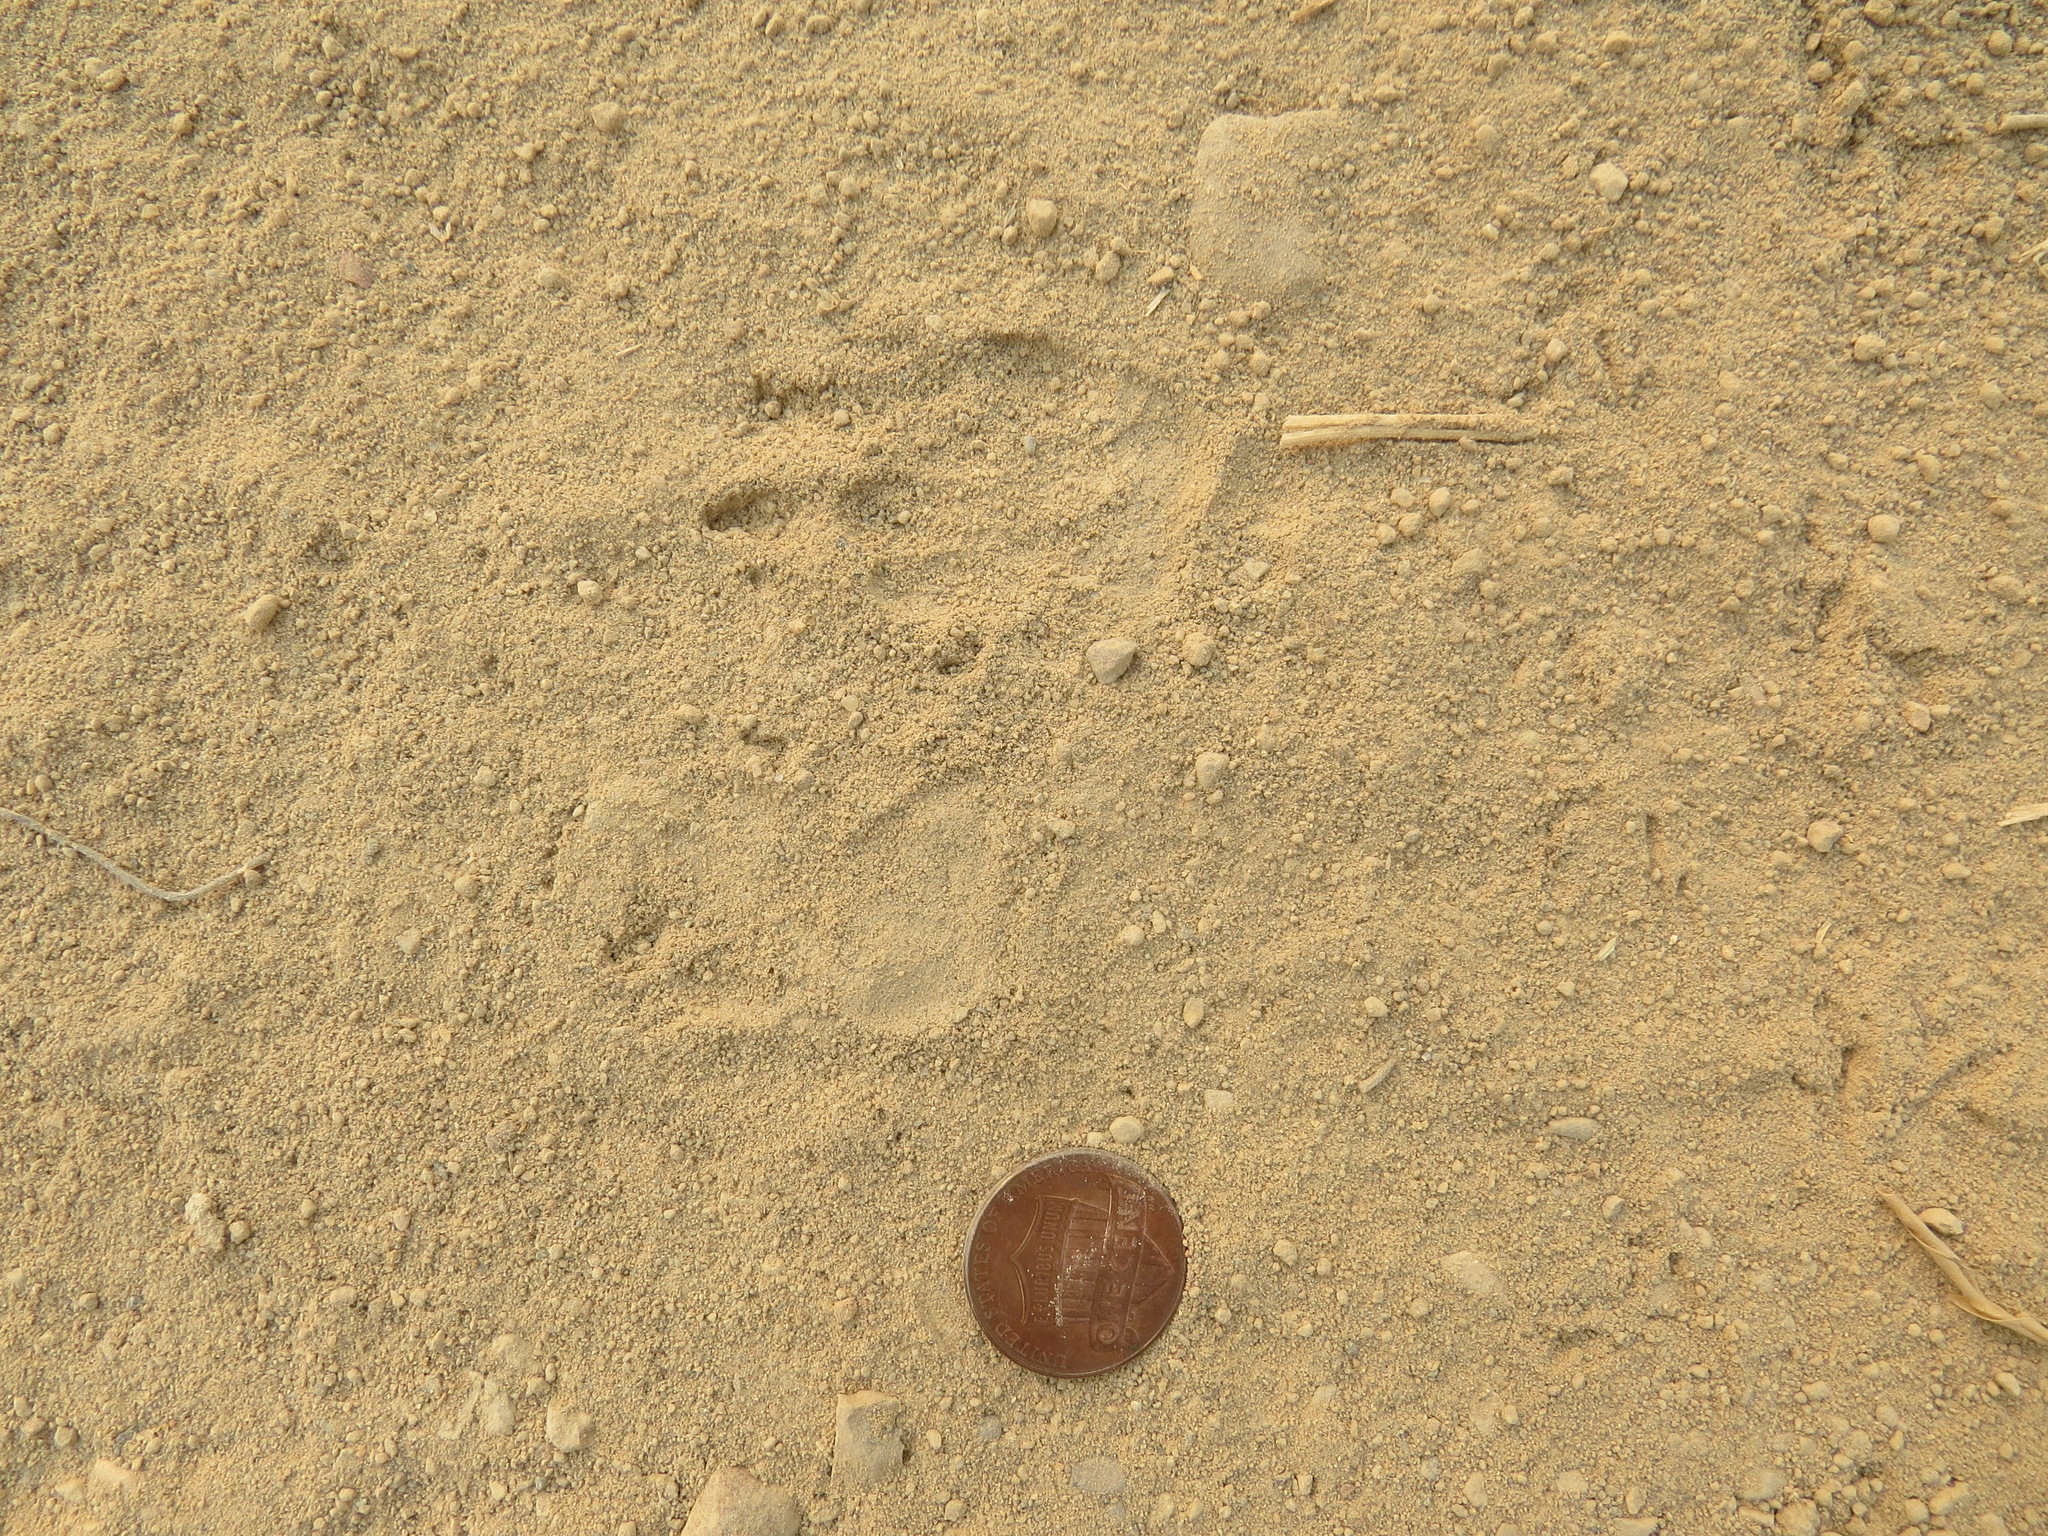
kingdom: Animalia
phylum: Chordata
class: Mammalia
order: Carnivora
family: Mephitidae
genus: Mephitis
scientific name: Mephitis mephitis
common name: Striped skunk
